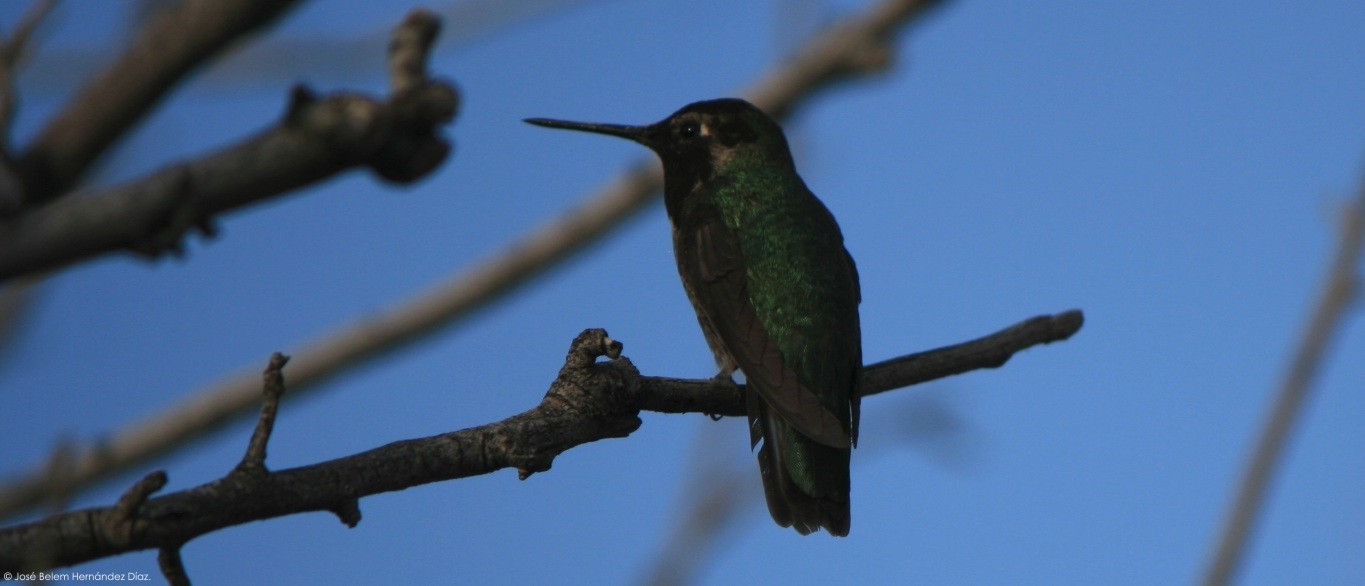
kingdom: Animalia
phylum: Chordata
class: Aves
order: Apodiformes
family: Trochilidae
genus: Calypte
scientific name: Calypte anna
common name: Anna's hummingbird
